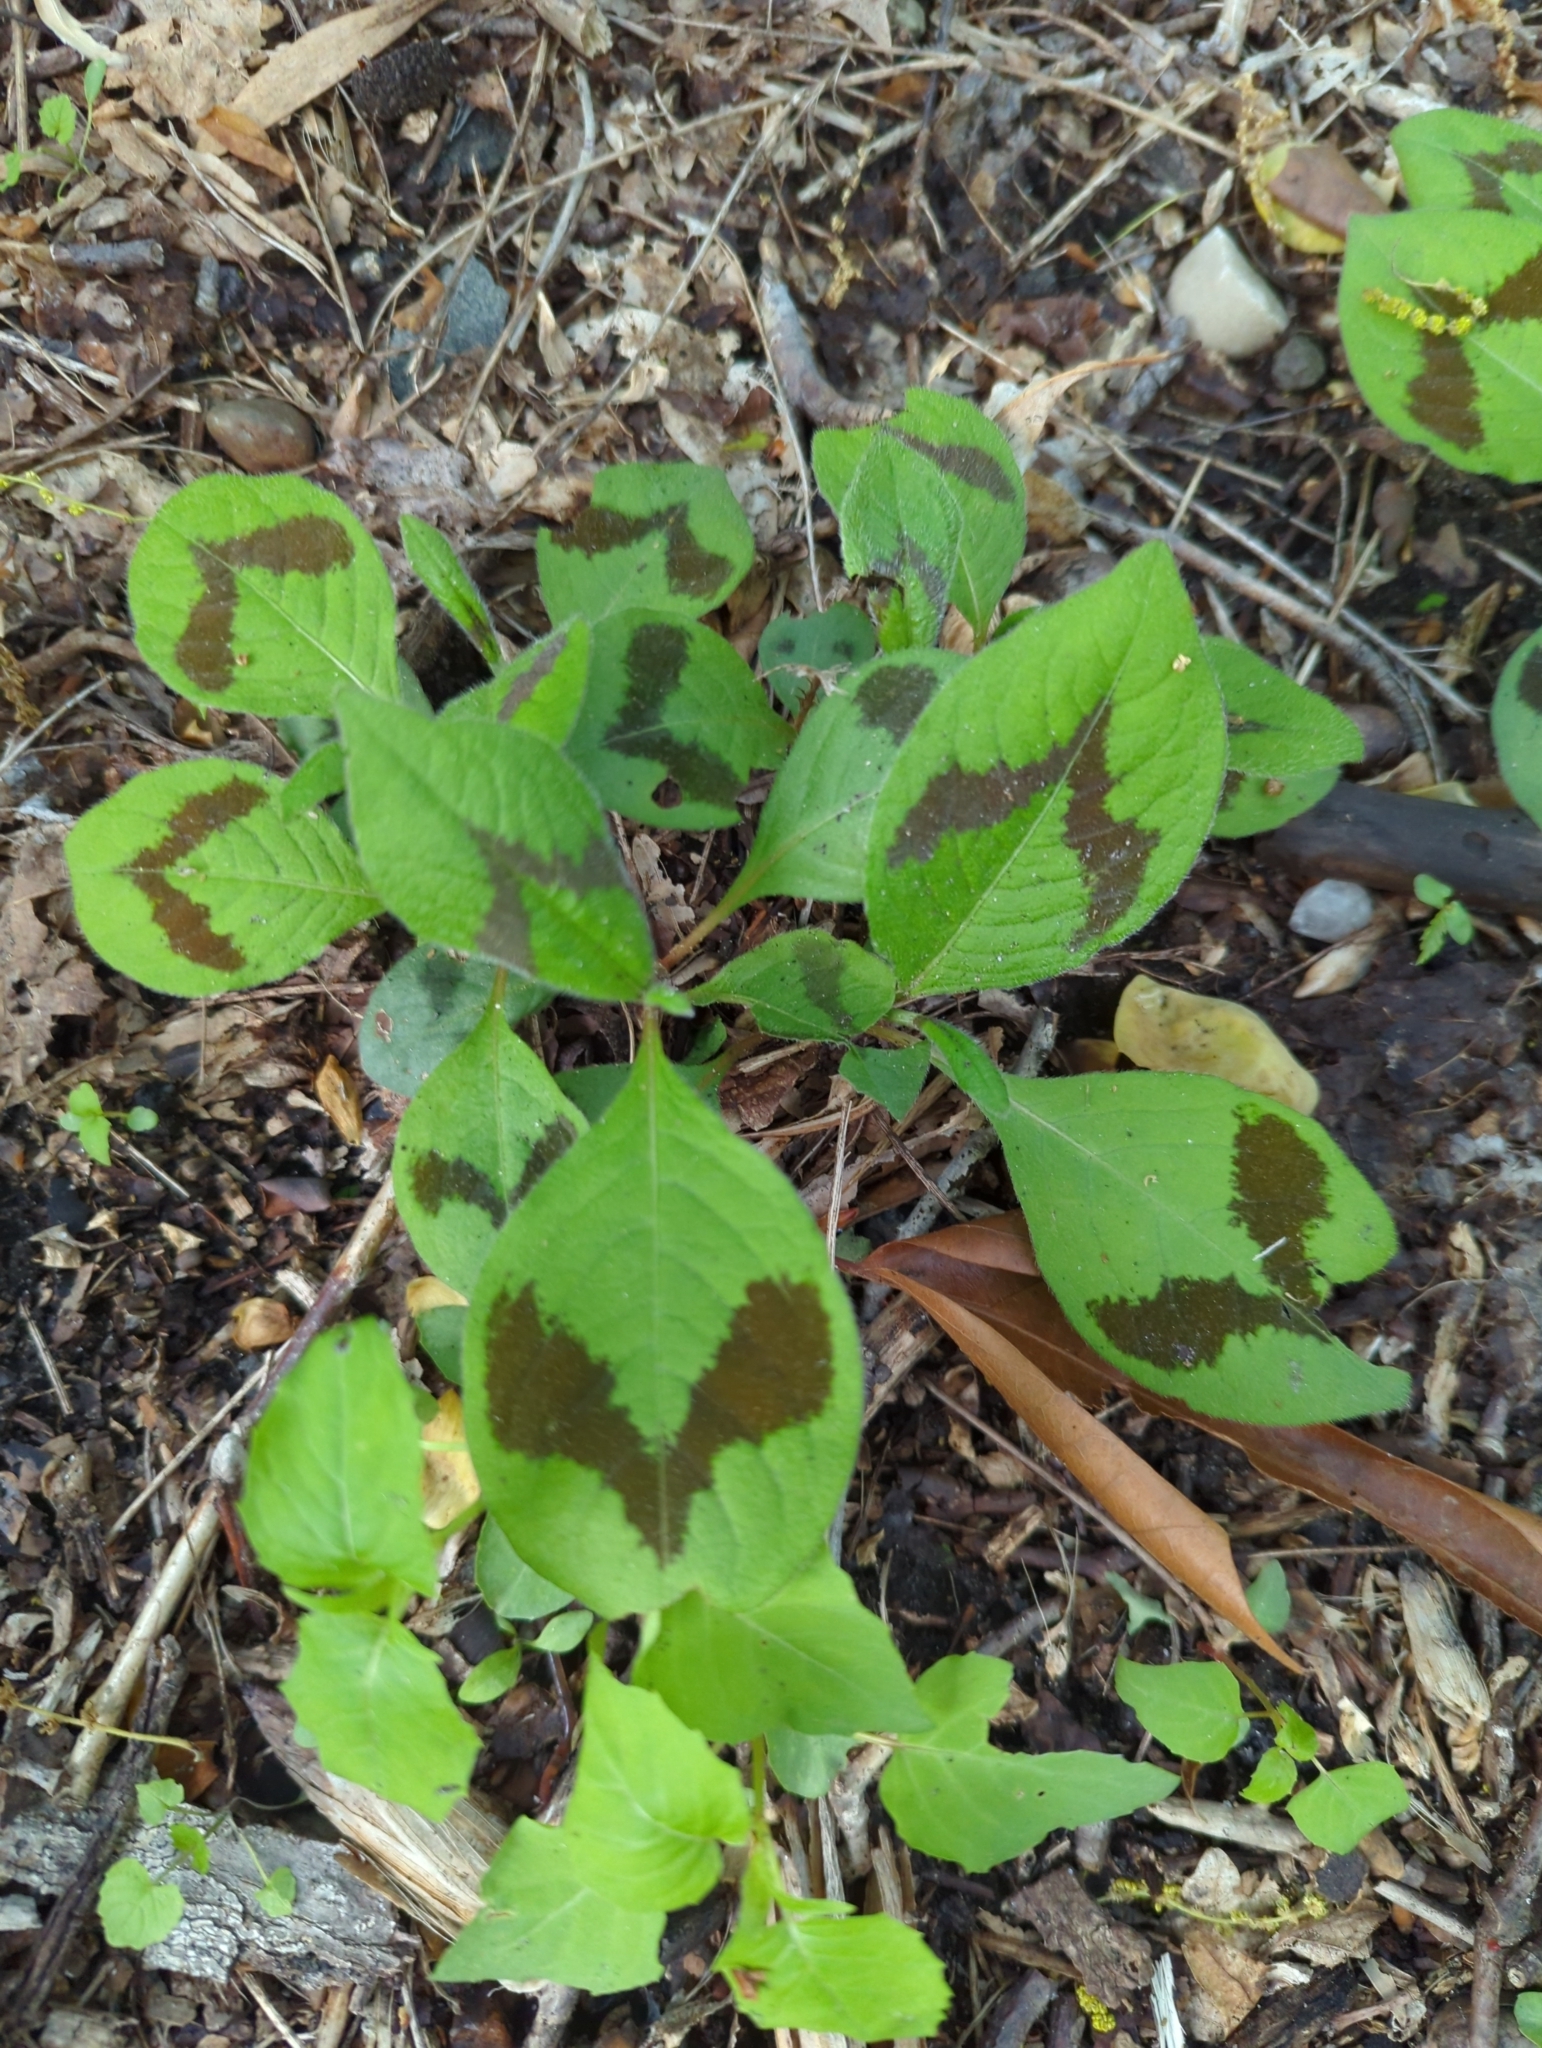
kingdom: Plantae
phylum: Tracheophyta
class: Magnoliopsida
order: Caryophyllales
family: Polygonaceae
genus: Persicaria
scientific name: Persicaria filiformis
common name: Asian jumpseed
